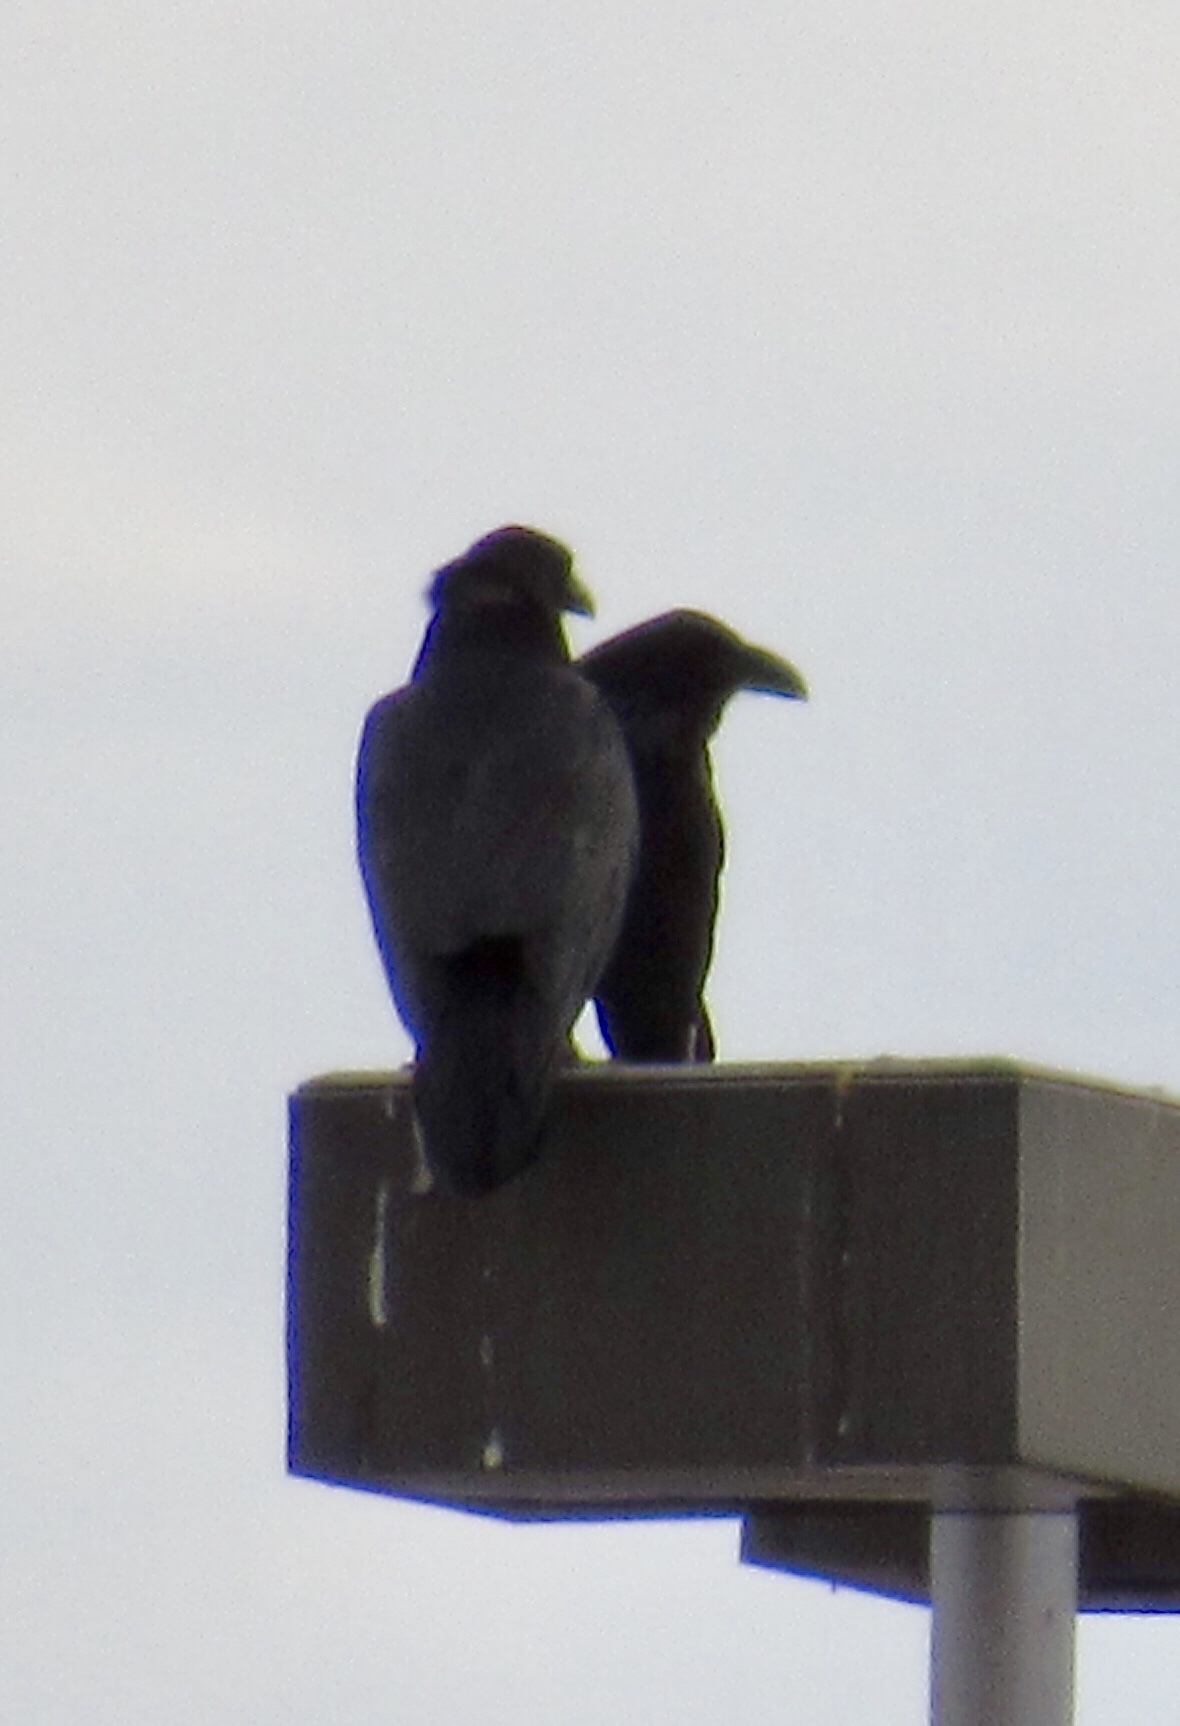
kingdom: Animalia
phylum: Chordata
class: Aves
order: Passeriformes
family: Corvidae
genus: Corvus
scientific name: Corvus corax
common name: Common raven
